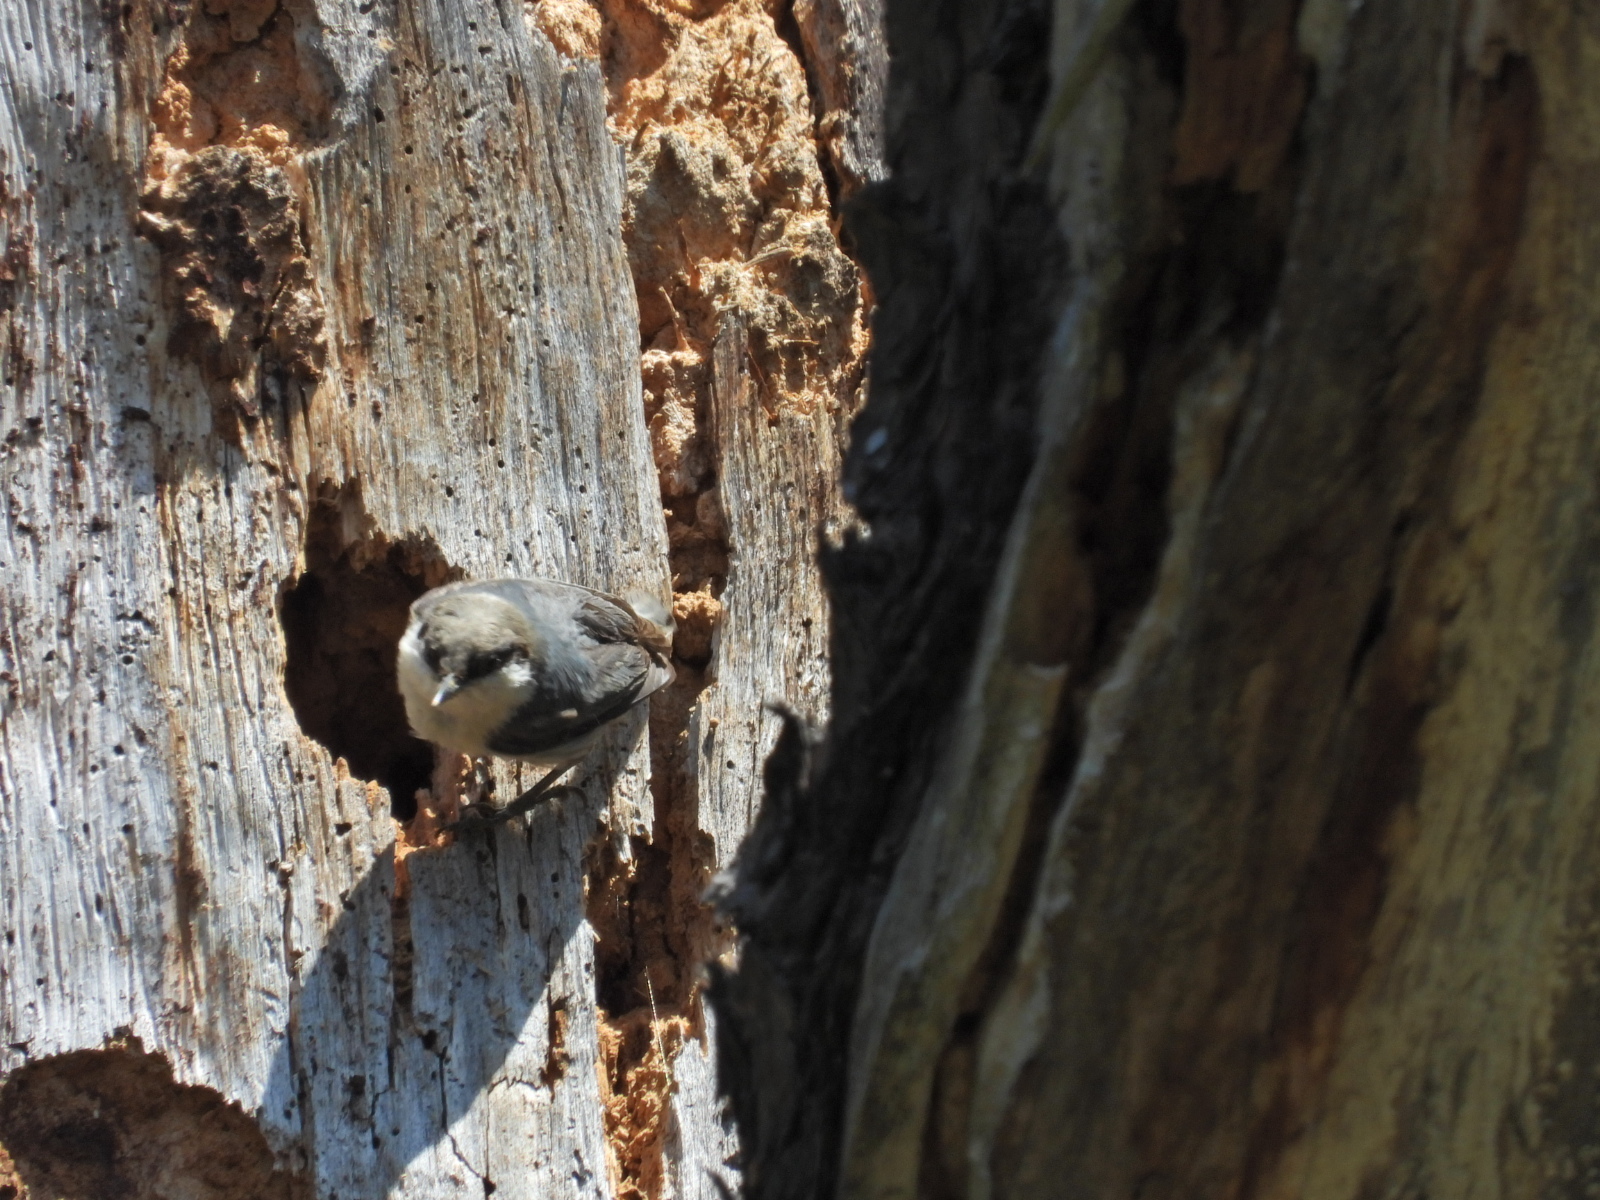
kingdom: Animalia
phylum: Chordata
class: Aves
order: Passeriformes
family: Sittidae
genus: Sitta
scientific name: Sitta pygmaea
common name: Pygmy nuthatch
